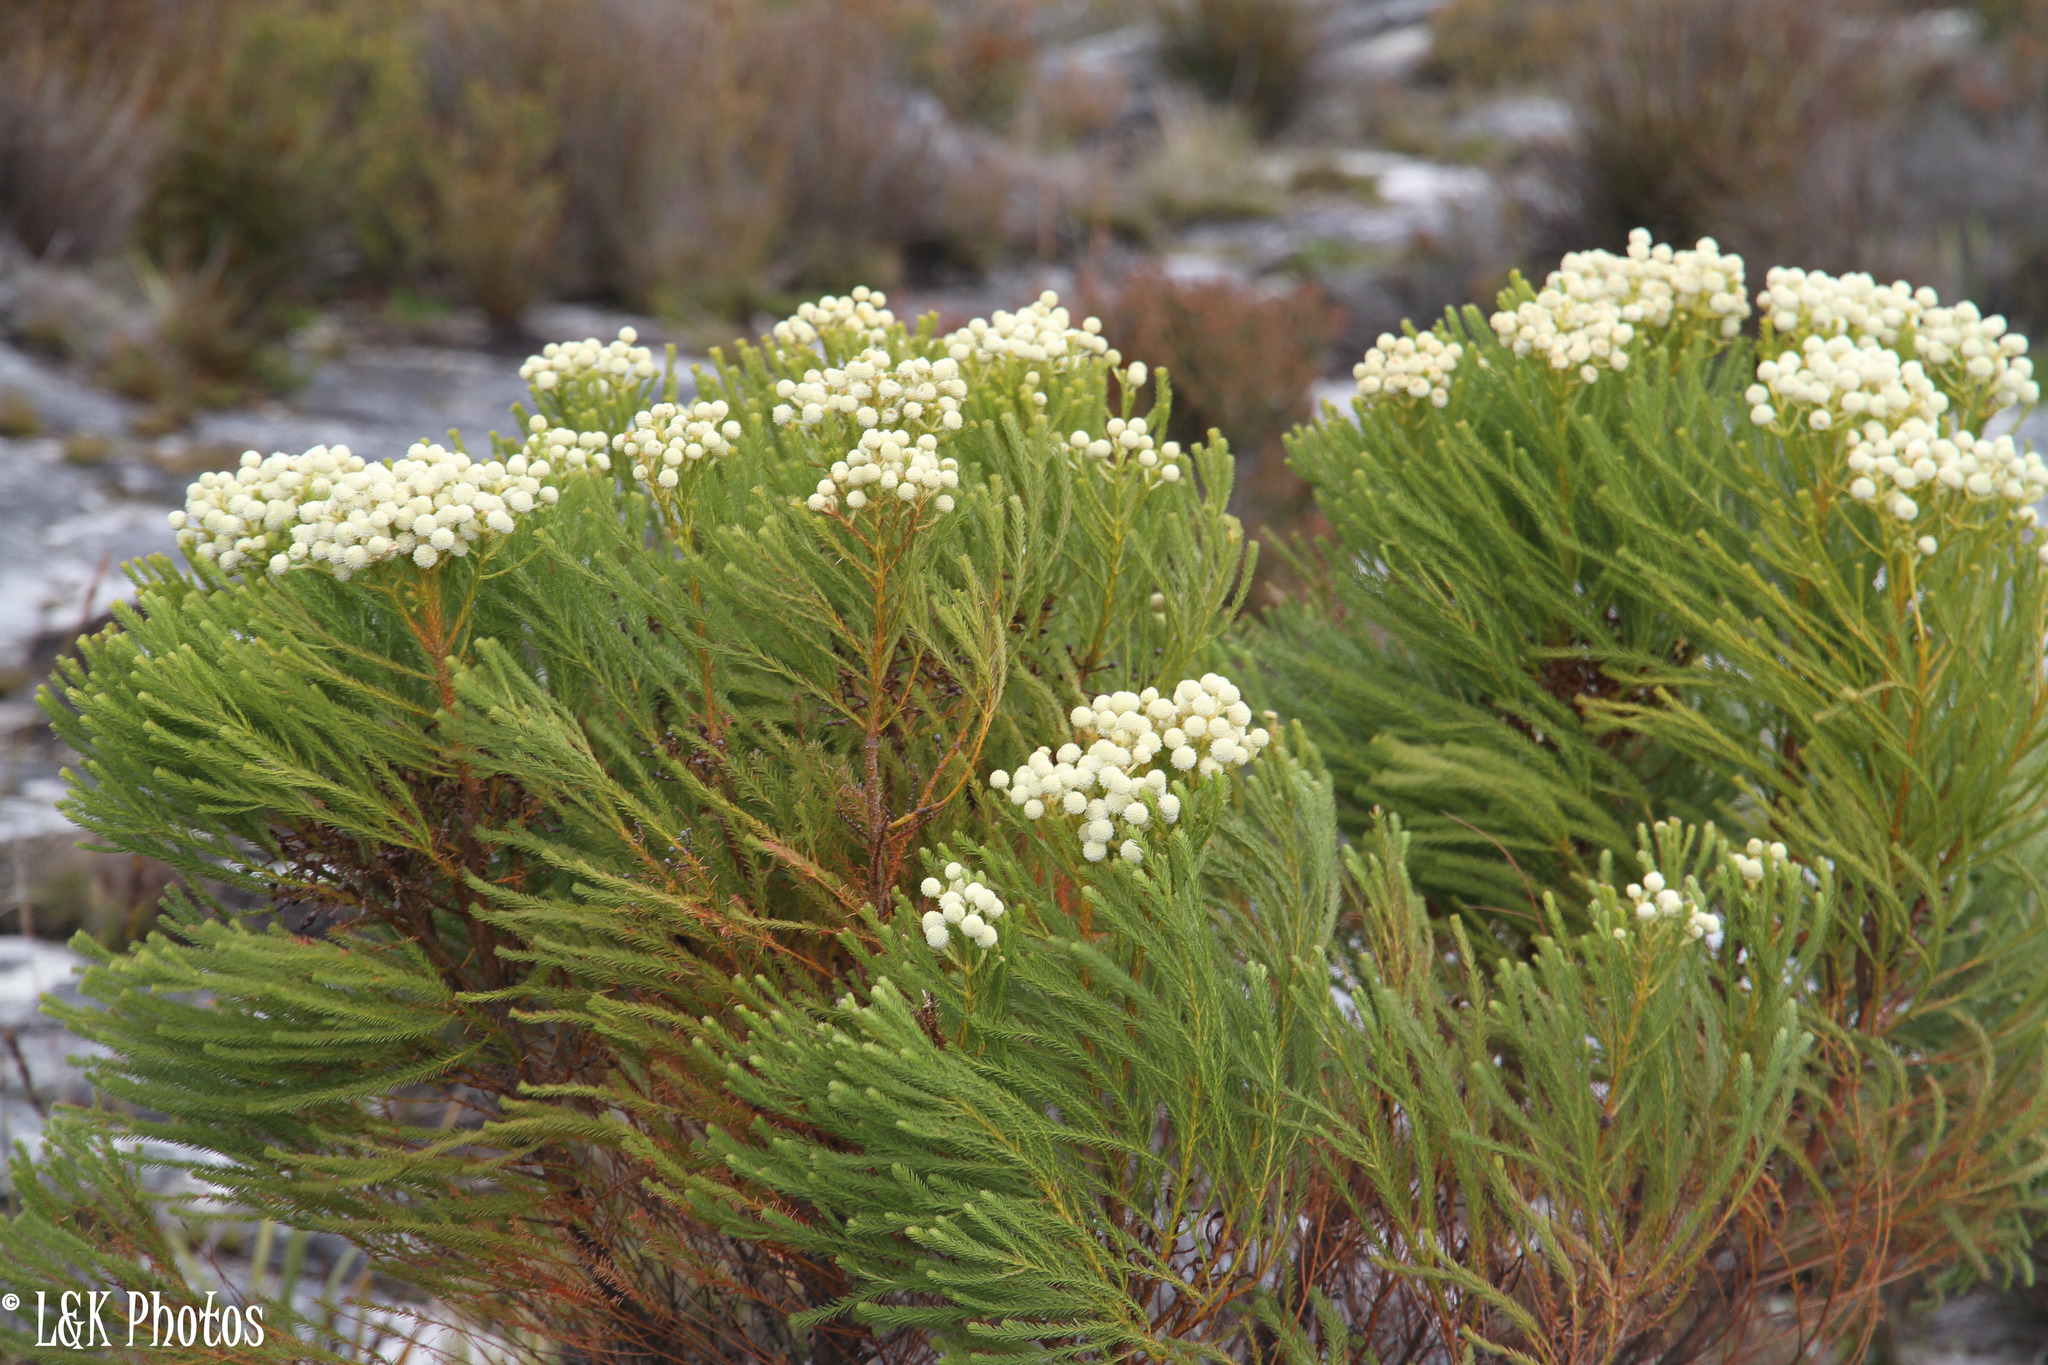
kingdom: Plantae
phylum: Tracheophyta
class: Magnoliopsida
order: Bruniales
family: Bruniaceae
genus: Berzelia
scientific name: Berzelia lanuginosa
